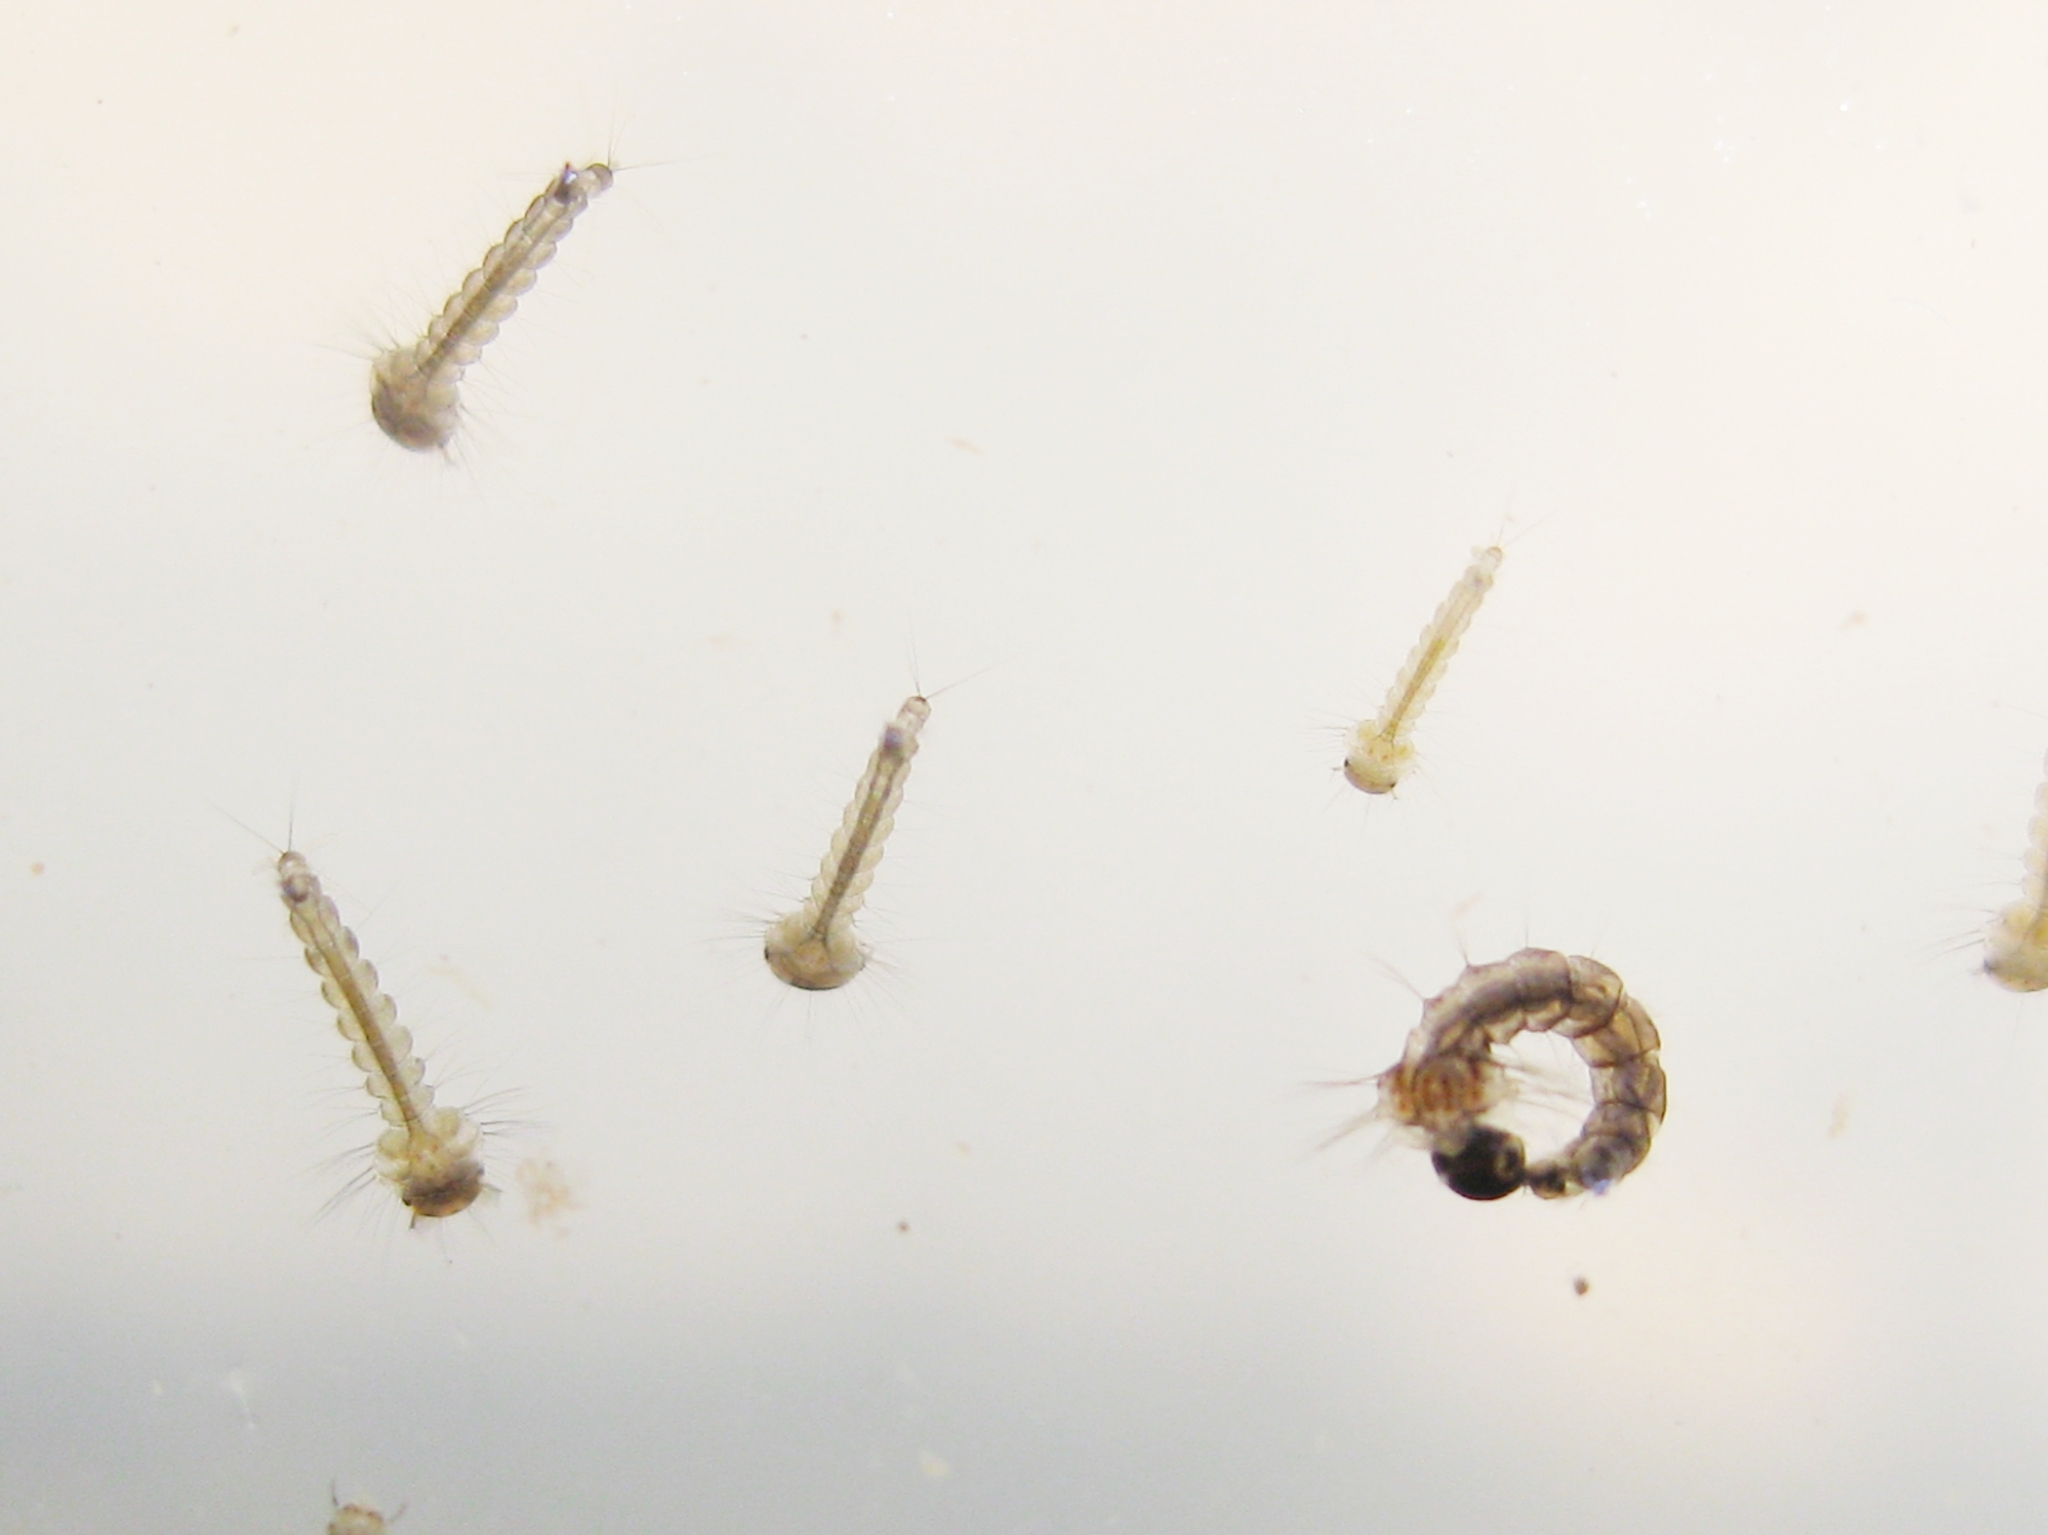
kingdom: Animalia
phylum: Arthropoda
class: Insecta
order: Diptera
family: Culicidae
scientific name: Culicidae
